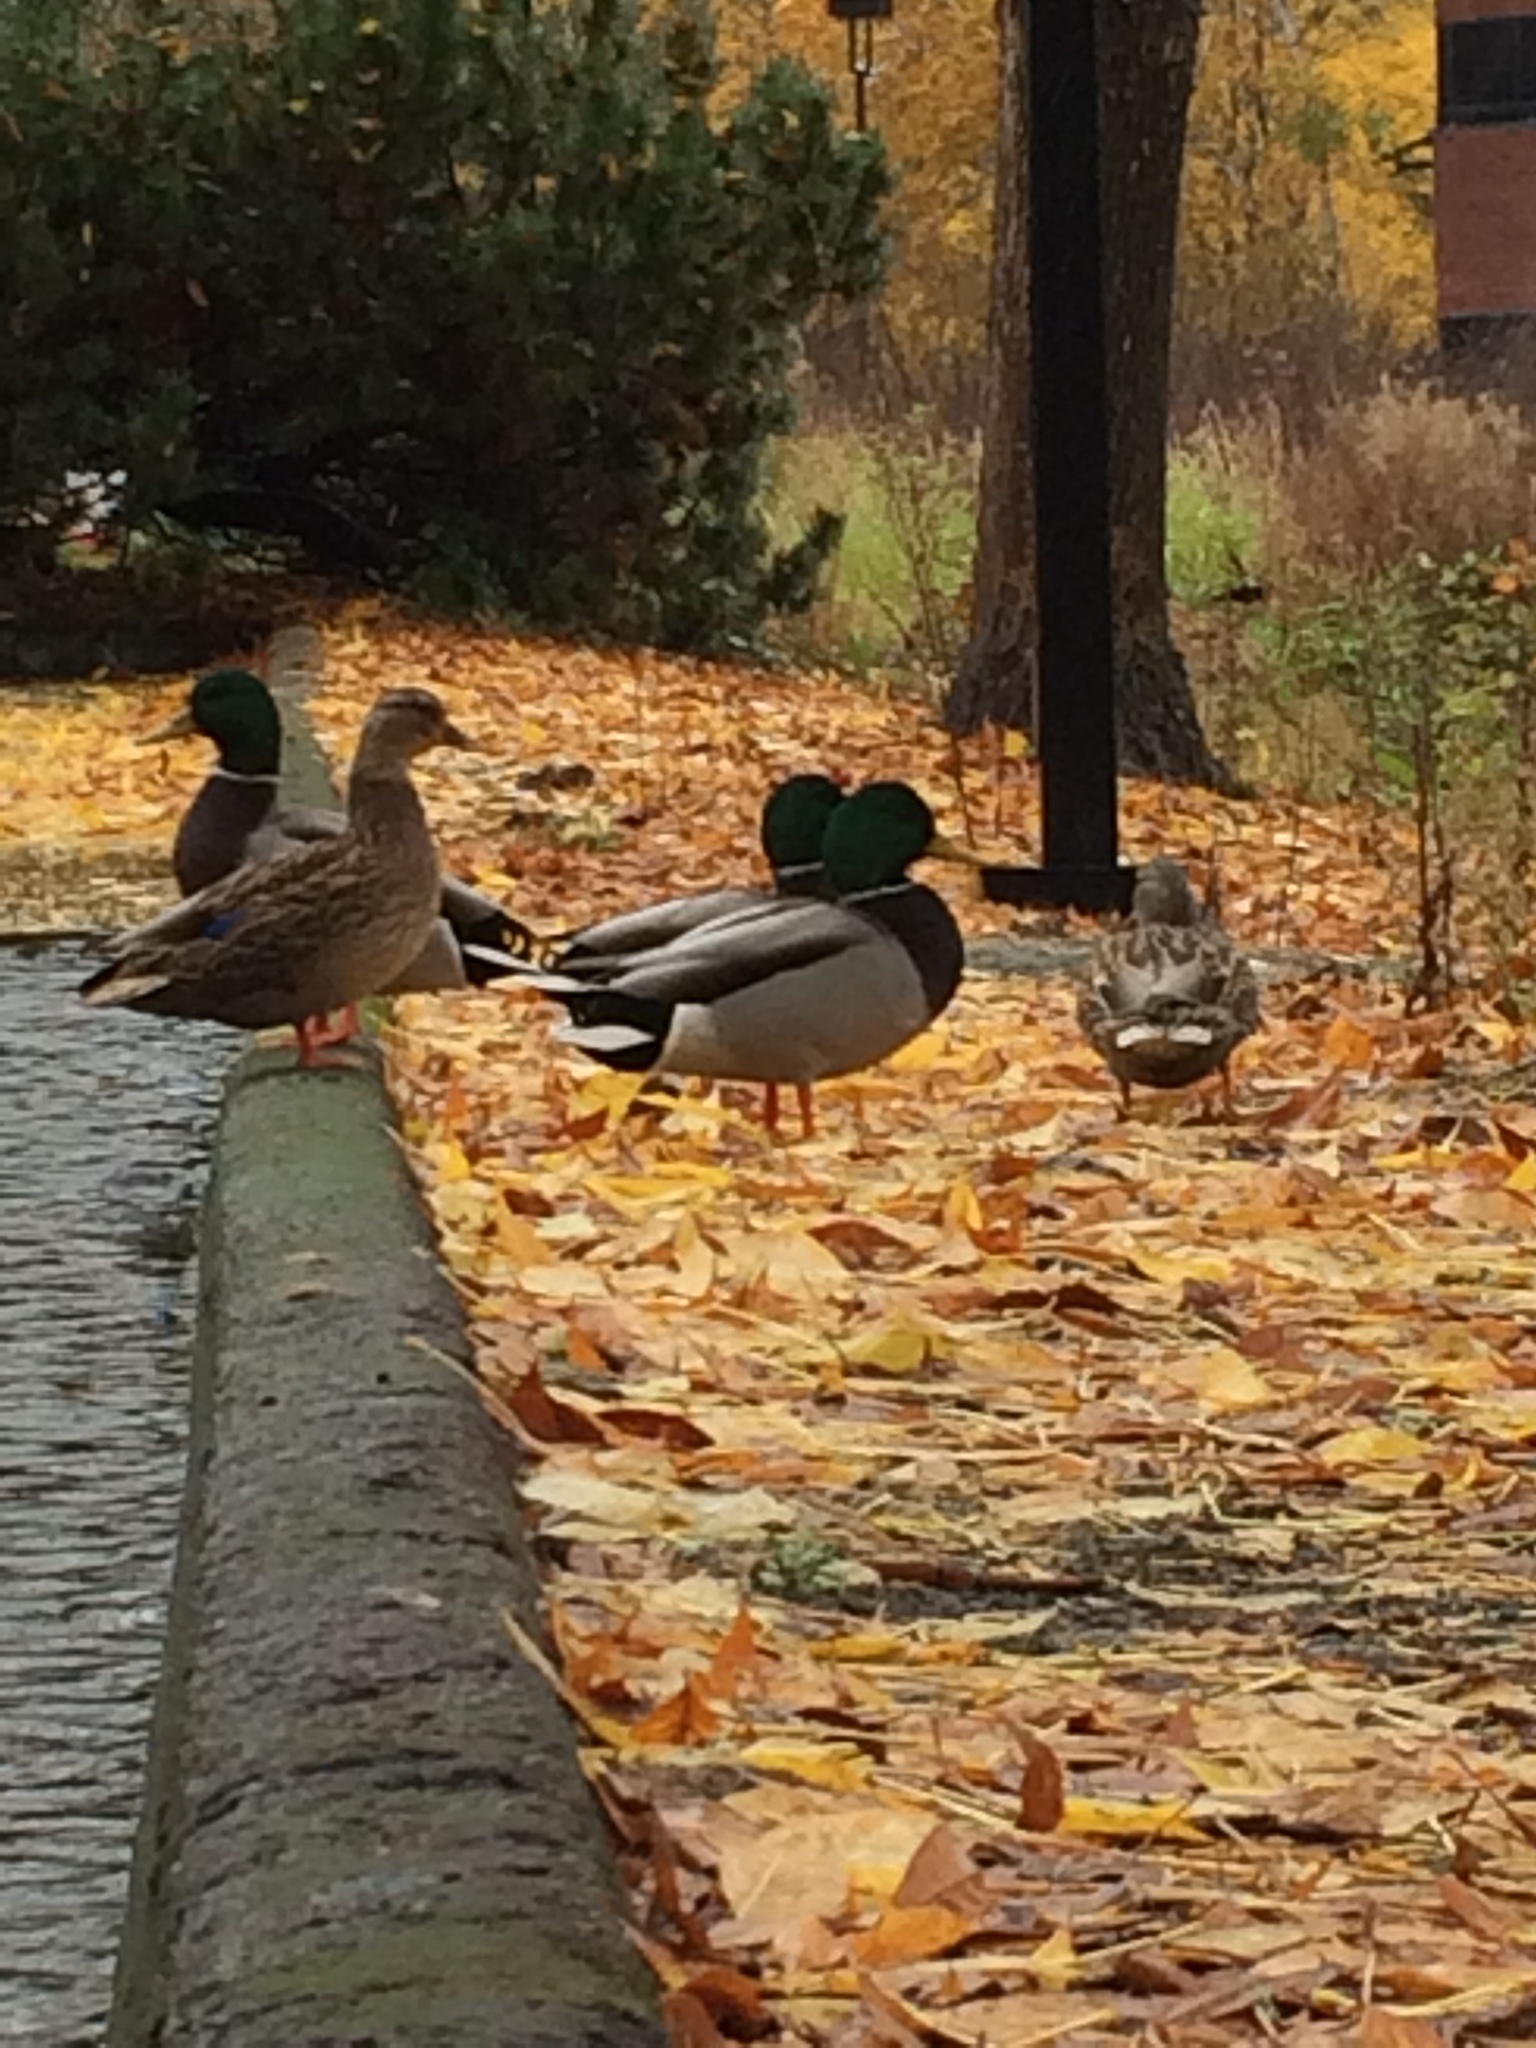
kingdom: Animalia
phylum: Chordata
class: Aves
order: Anseriformes
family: Anatidae
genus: Anas
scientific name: Anas platyrhynchos
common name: Mallard
